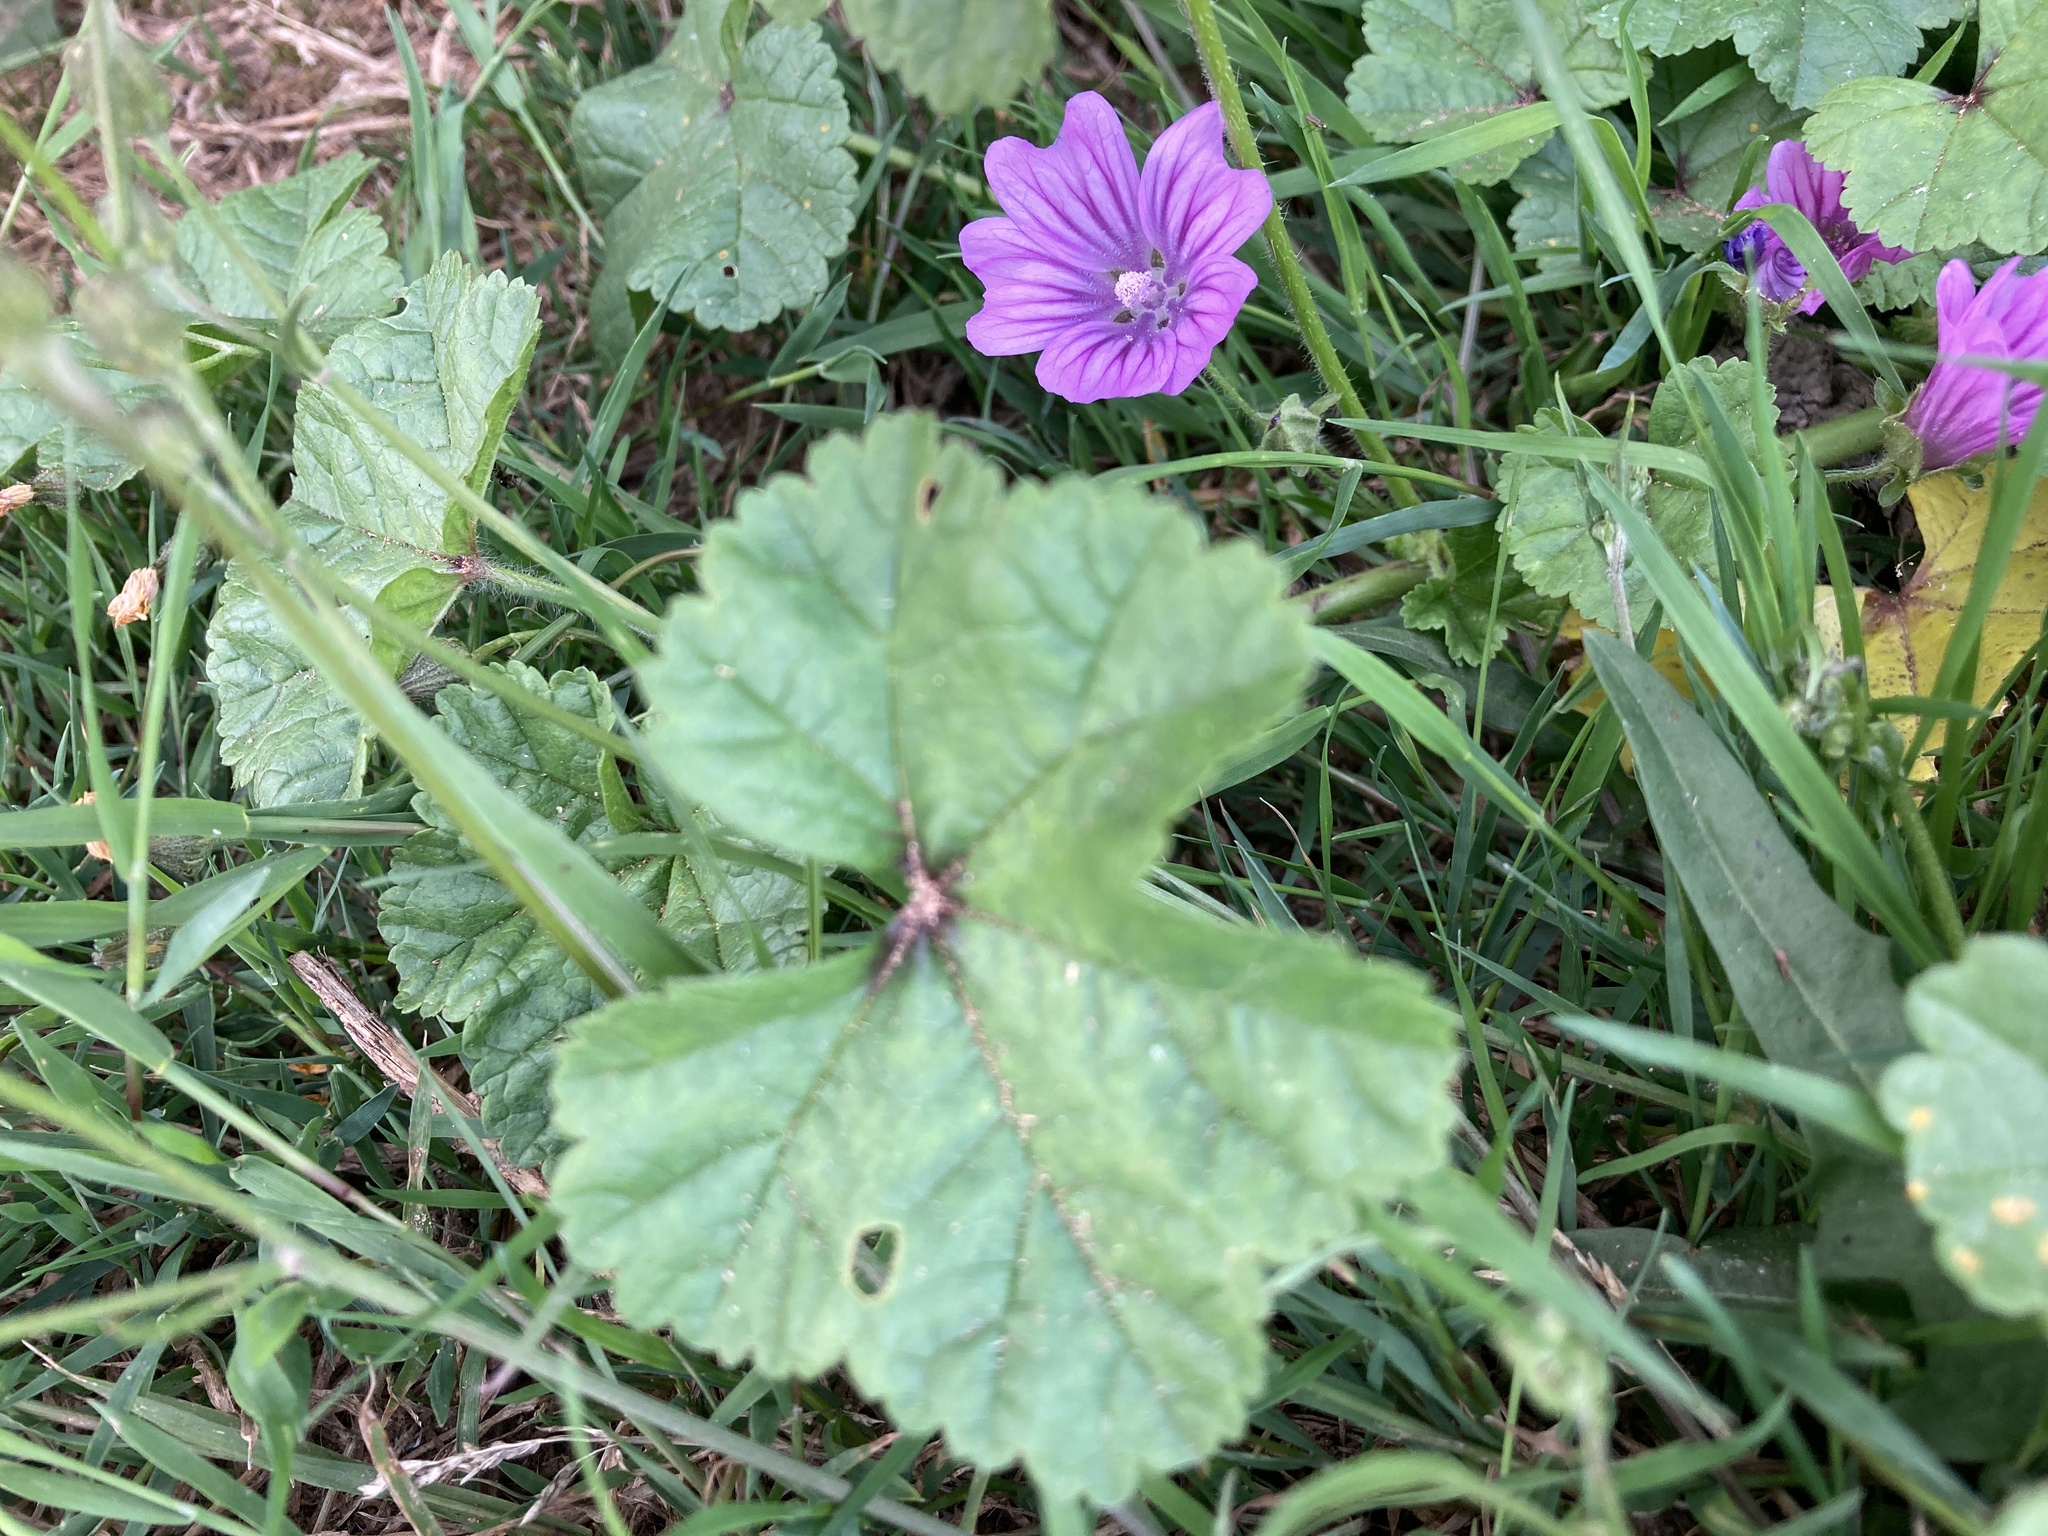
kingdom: Plantae
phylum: Tracheophyta
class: Magnoliopsida
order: Malvales
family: Malvaceae
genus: Malva
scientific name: Malva sylvestris
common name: Common mallow
